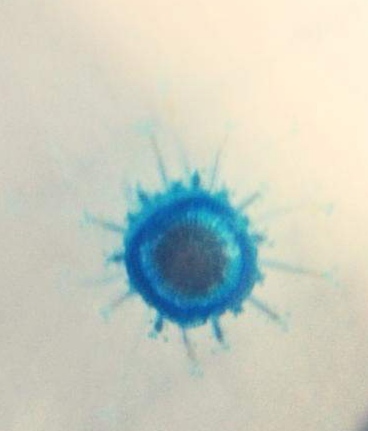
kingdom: Animalia
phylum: Cnidaria
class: Hydrozoa
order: Anthoathecata
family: Porpitidae
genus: Porpita
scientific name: Porpita porpita
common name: Blue button
